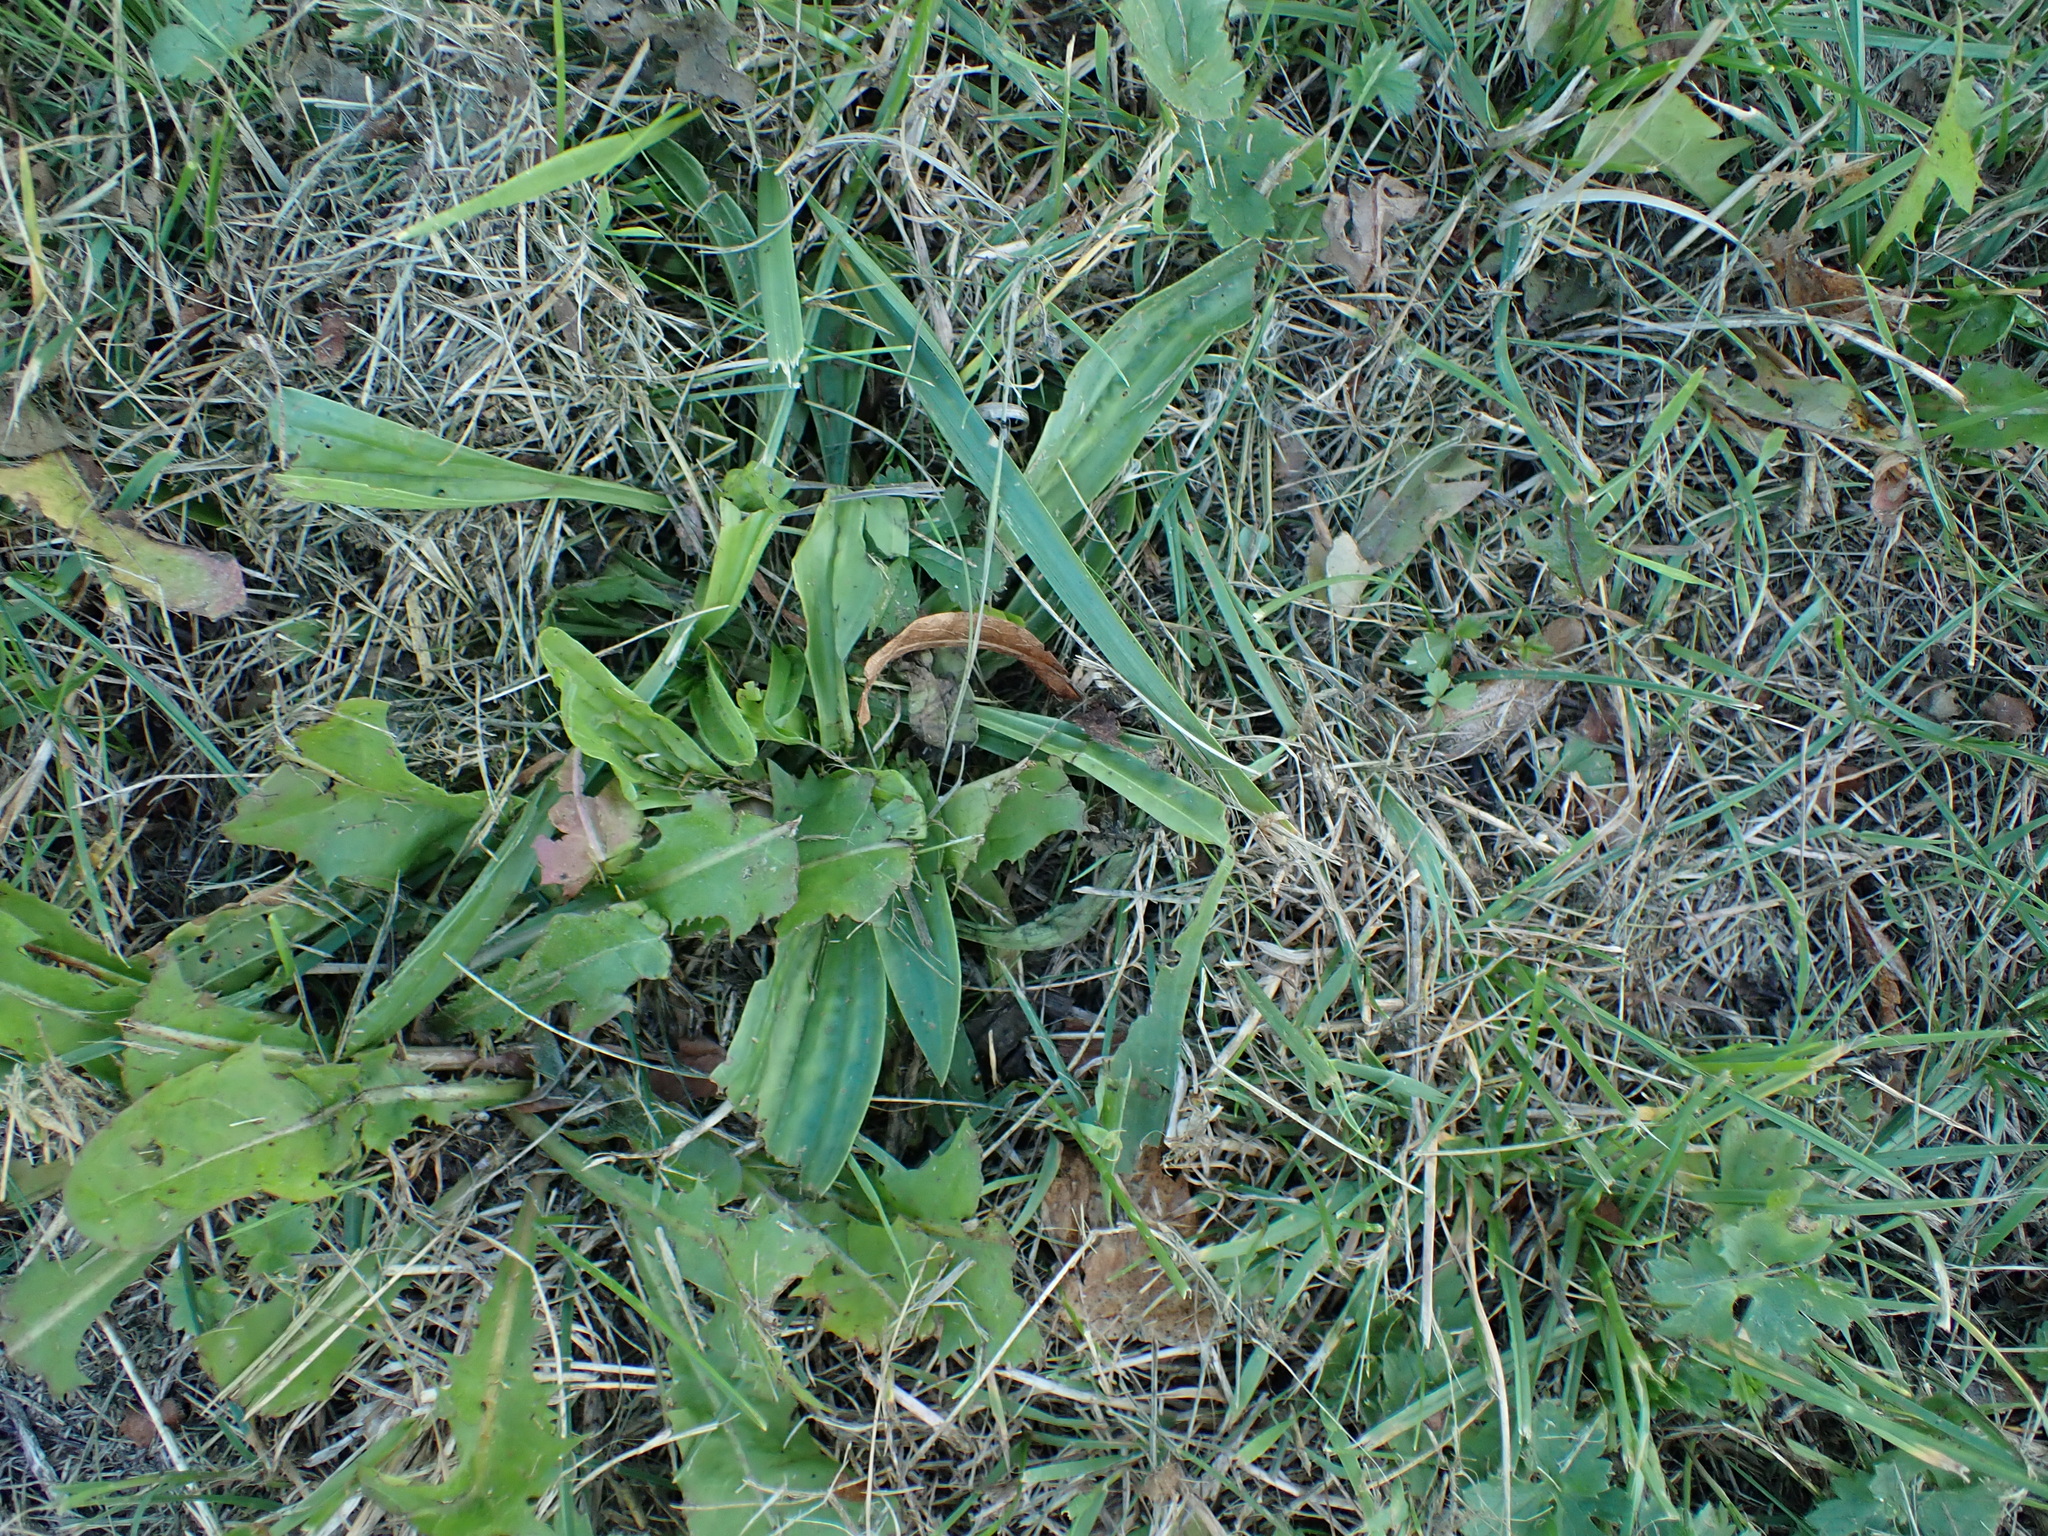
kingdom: Plantae
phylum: Tracheophyta
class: Magnoliopsida
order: Lamiales
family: Plantaginaceae
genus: Plantago
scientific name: Plantago lanceolata
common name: Ribwort plantain
